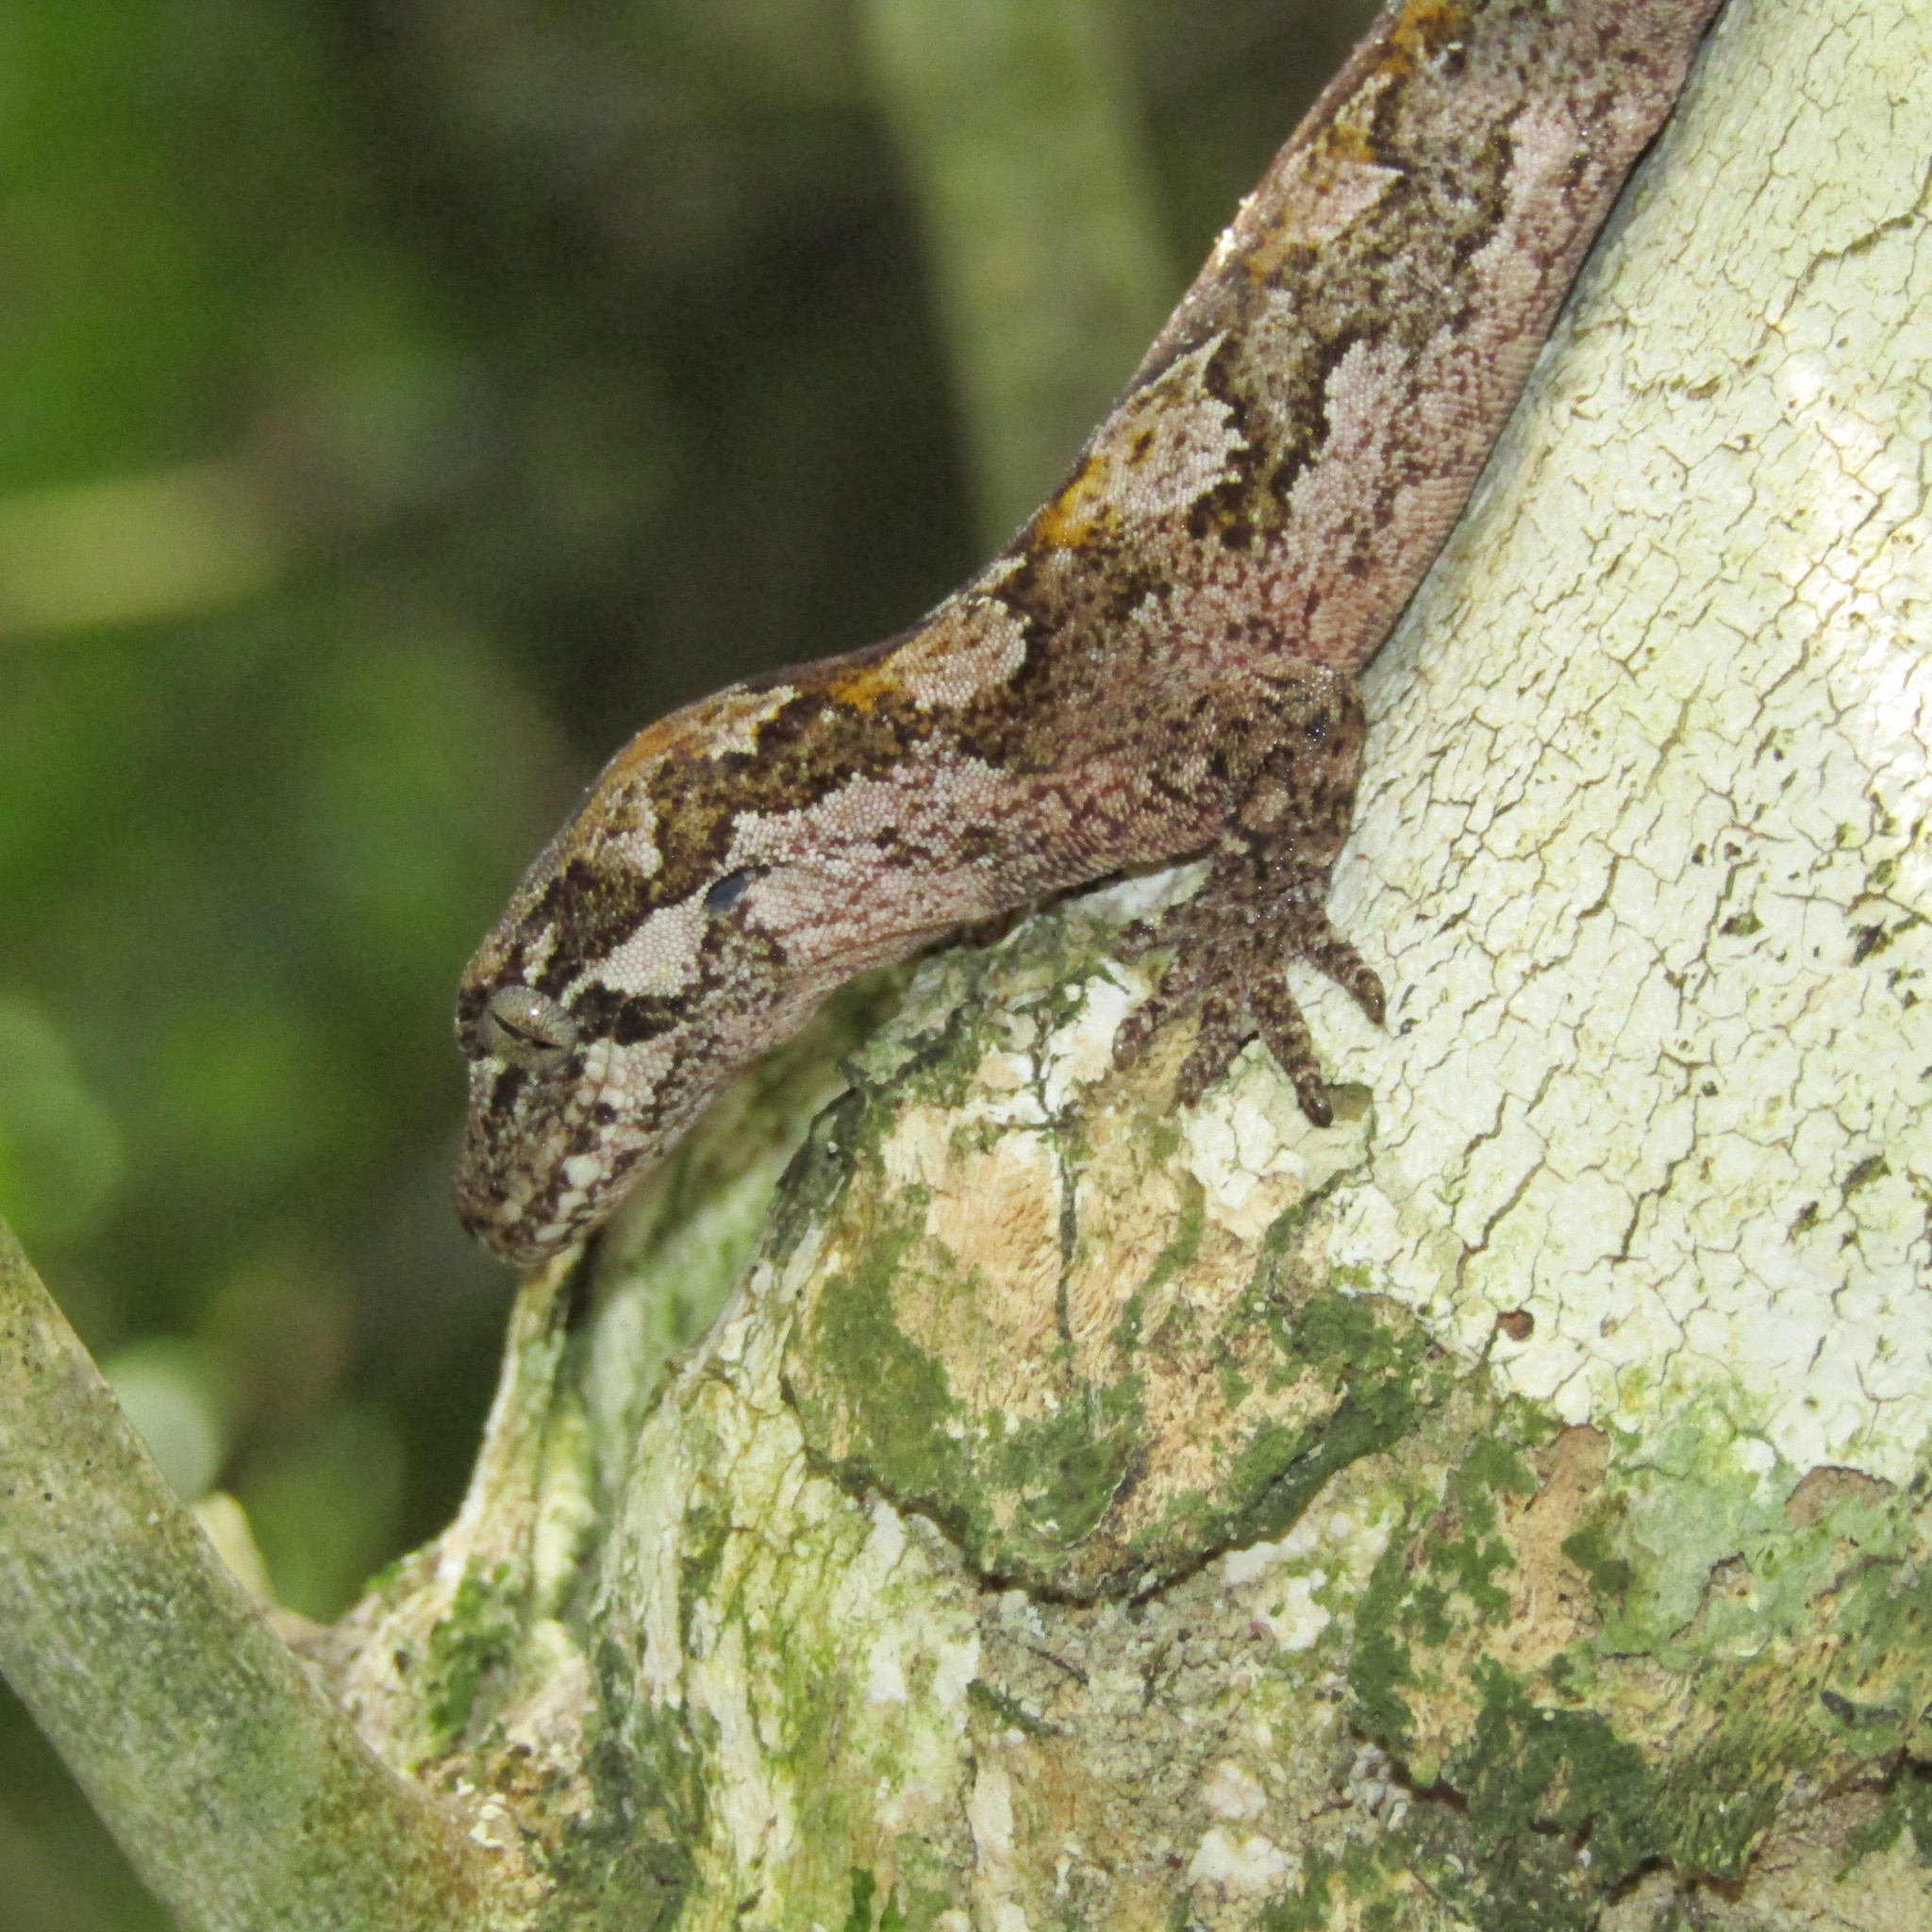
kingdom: Animalia
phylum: Chordata
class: Squamata
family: Diplodactylidae
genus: Mokopirirakau
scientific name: Mokopirirakau
